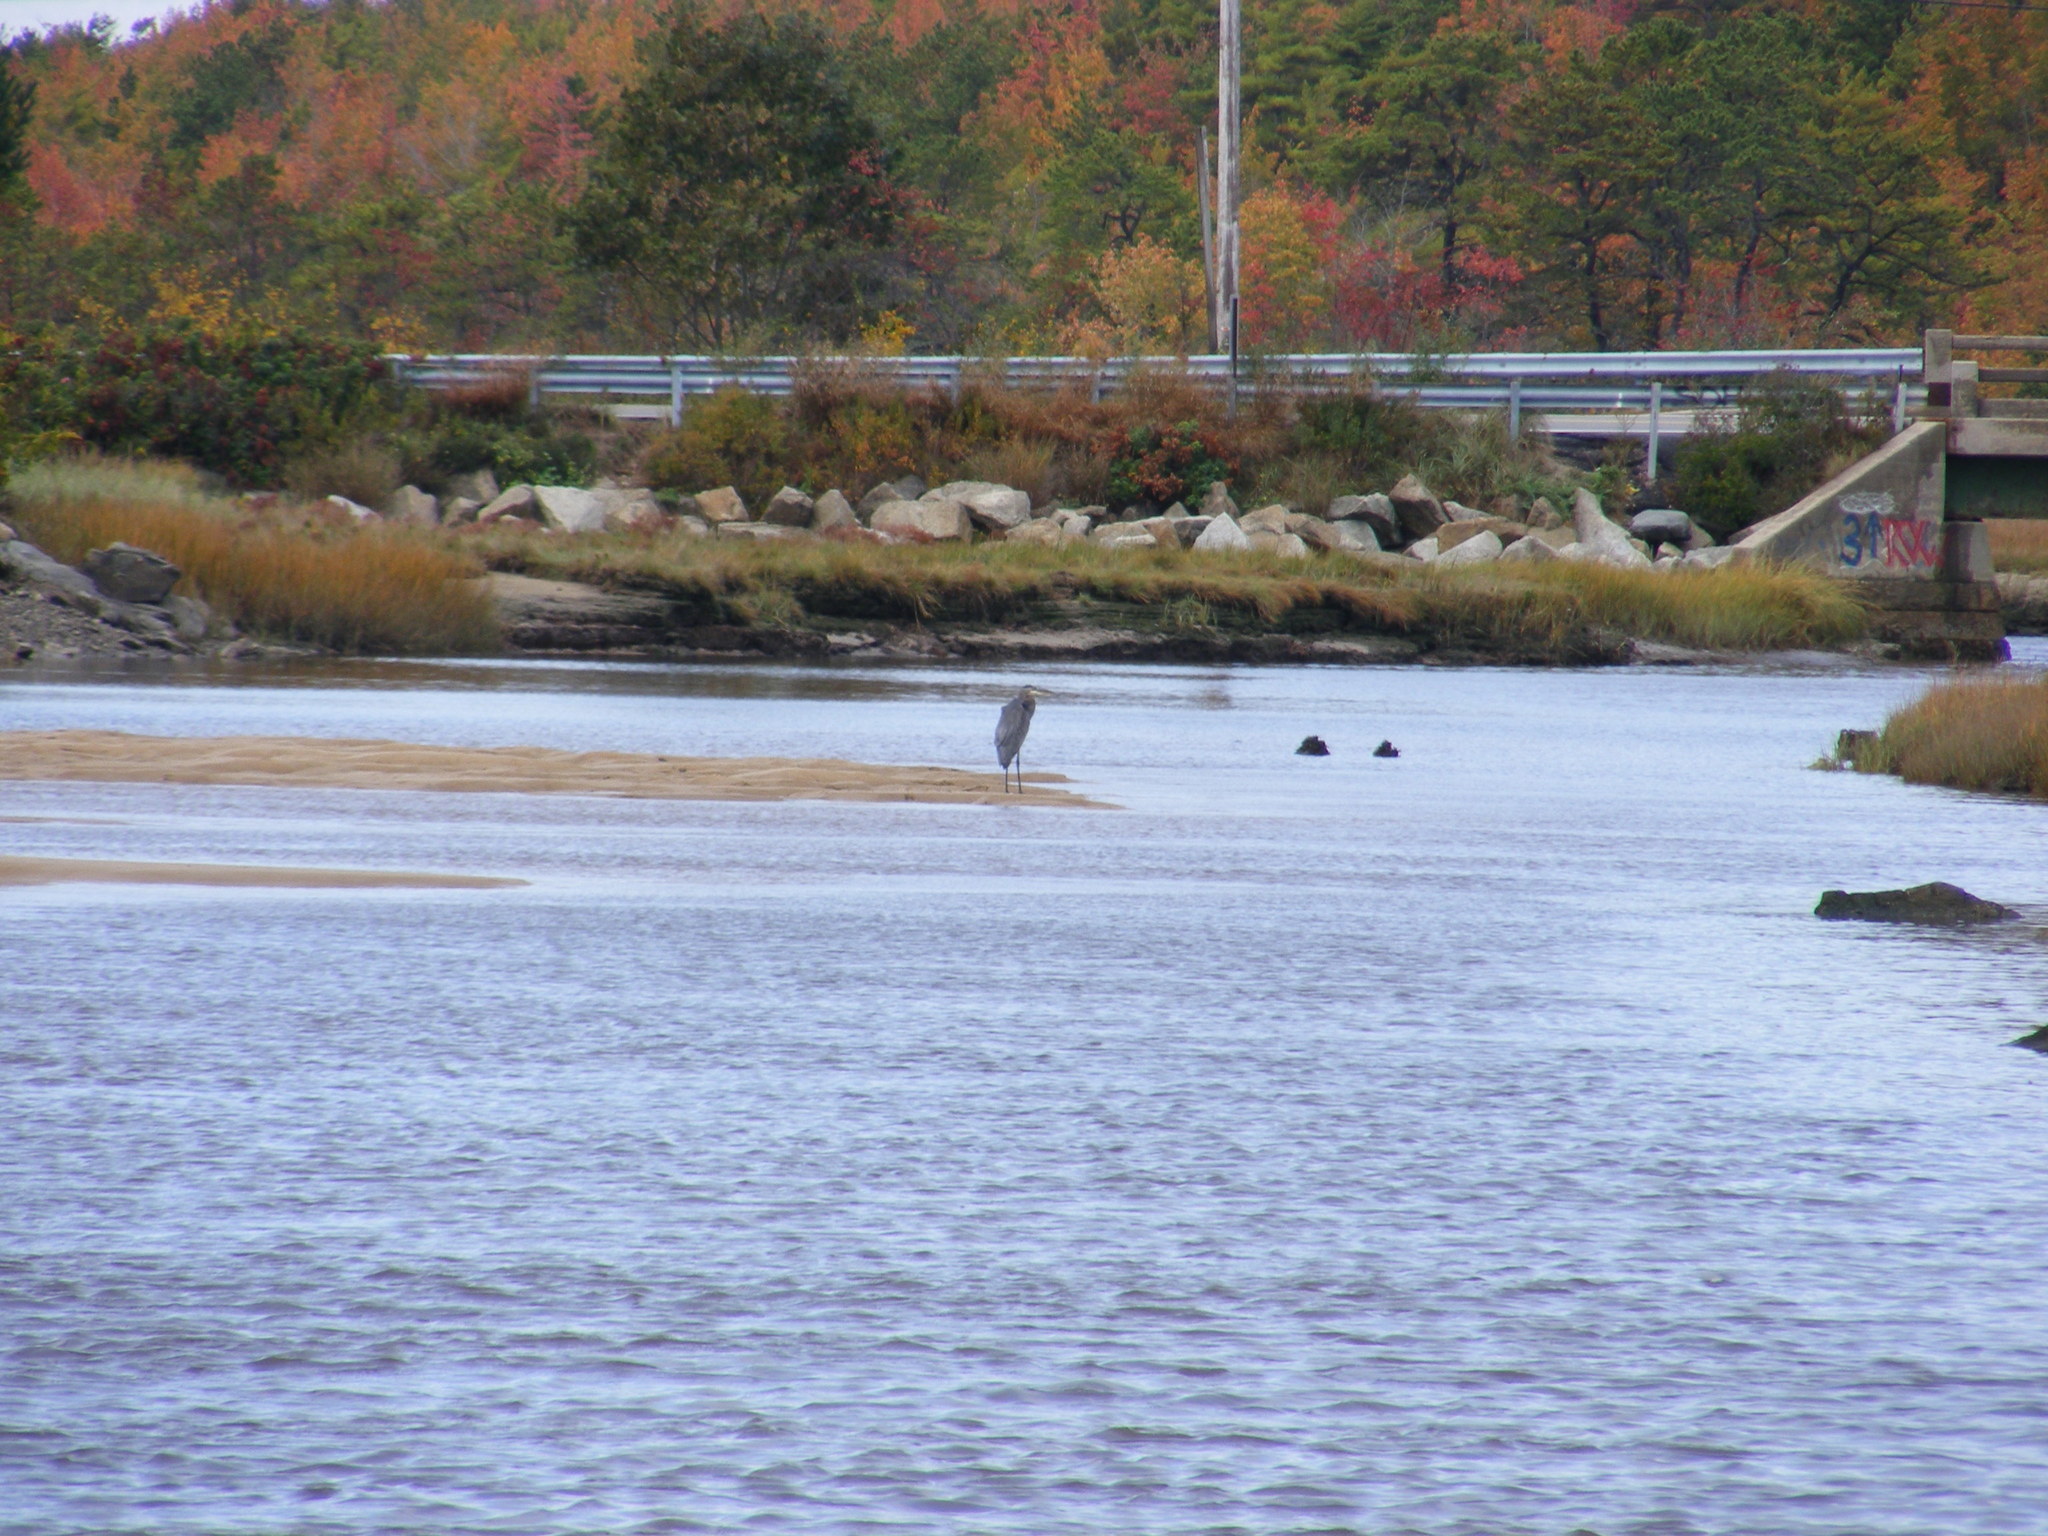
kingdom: Animalia
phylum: Chordata
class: Aves
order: Pelecaniformes
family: Ardeidae
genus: Ardea
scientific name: Ardea herodias
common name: Great blue heron
